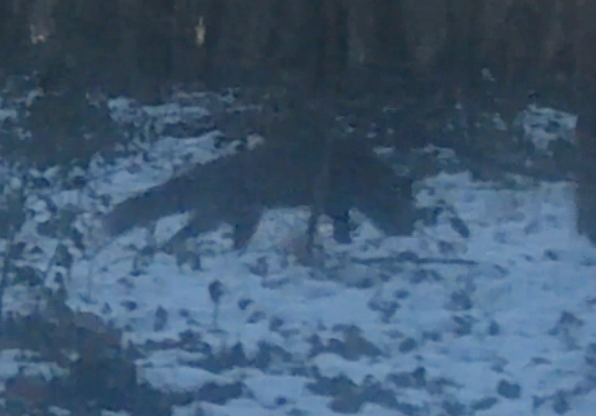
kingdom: Animalia
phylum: Chordata
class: Mammalia
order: Carnivora
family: Canidae
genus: Vulpes
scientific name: Vulpes vulpes
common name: Red fox
